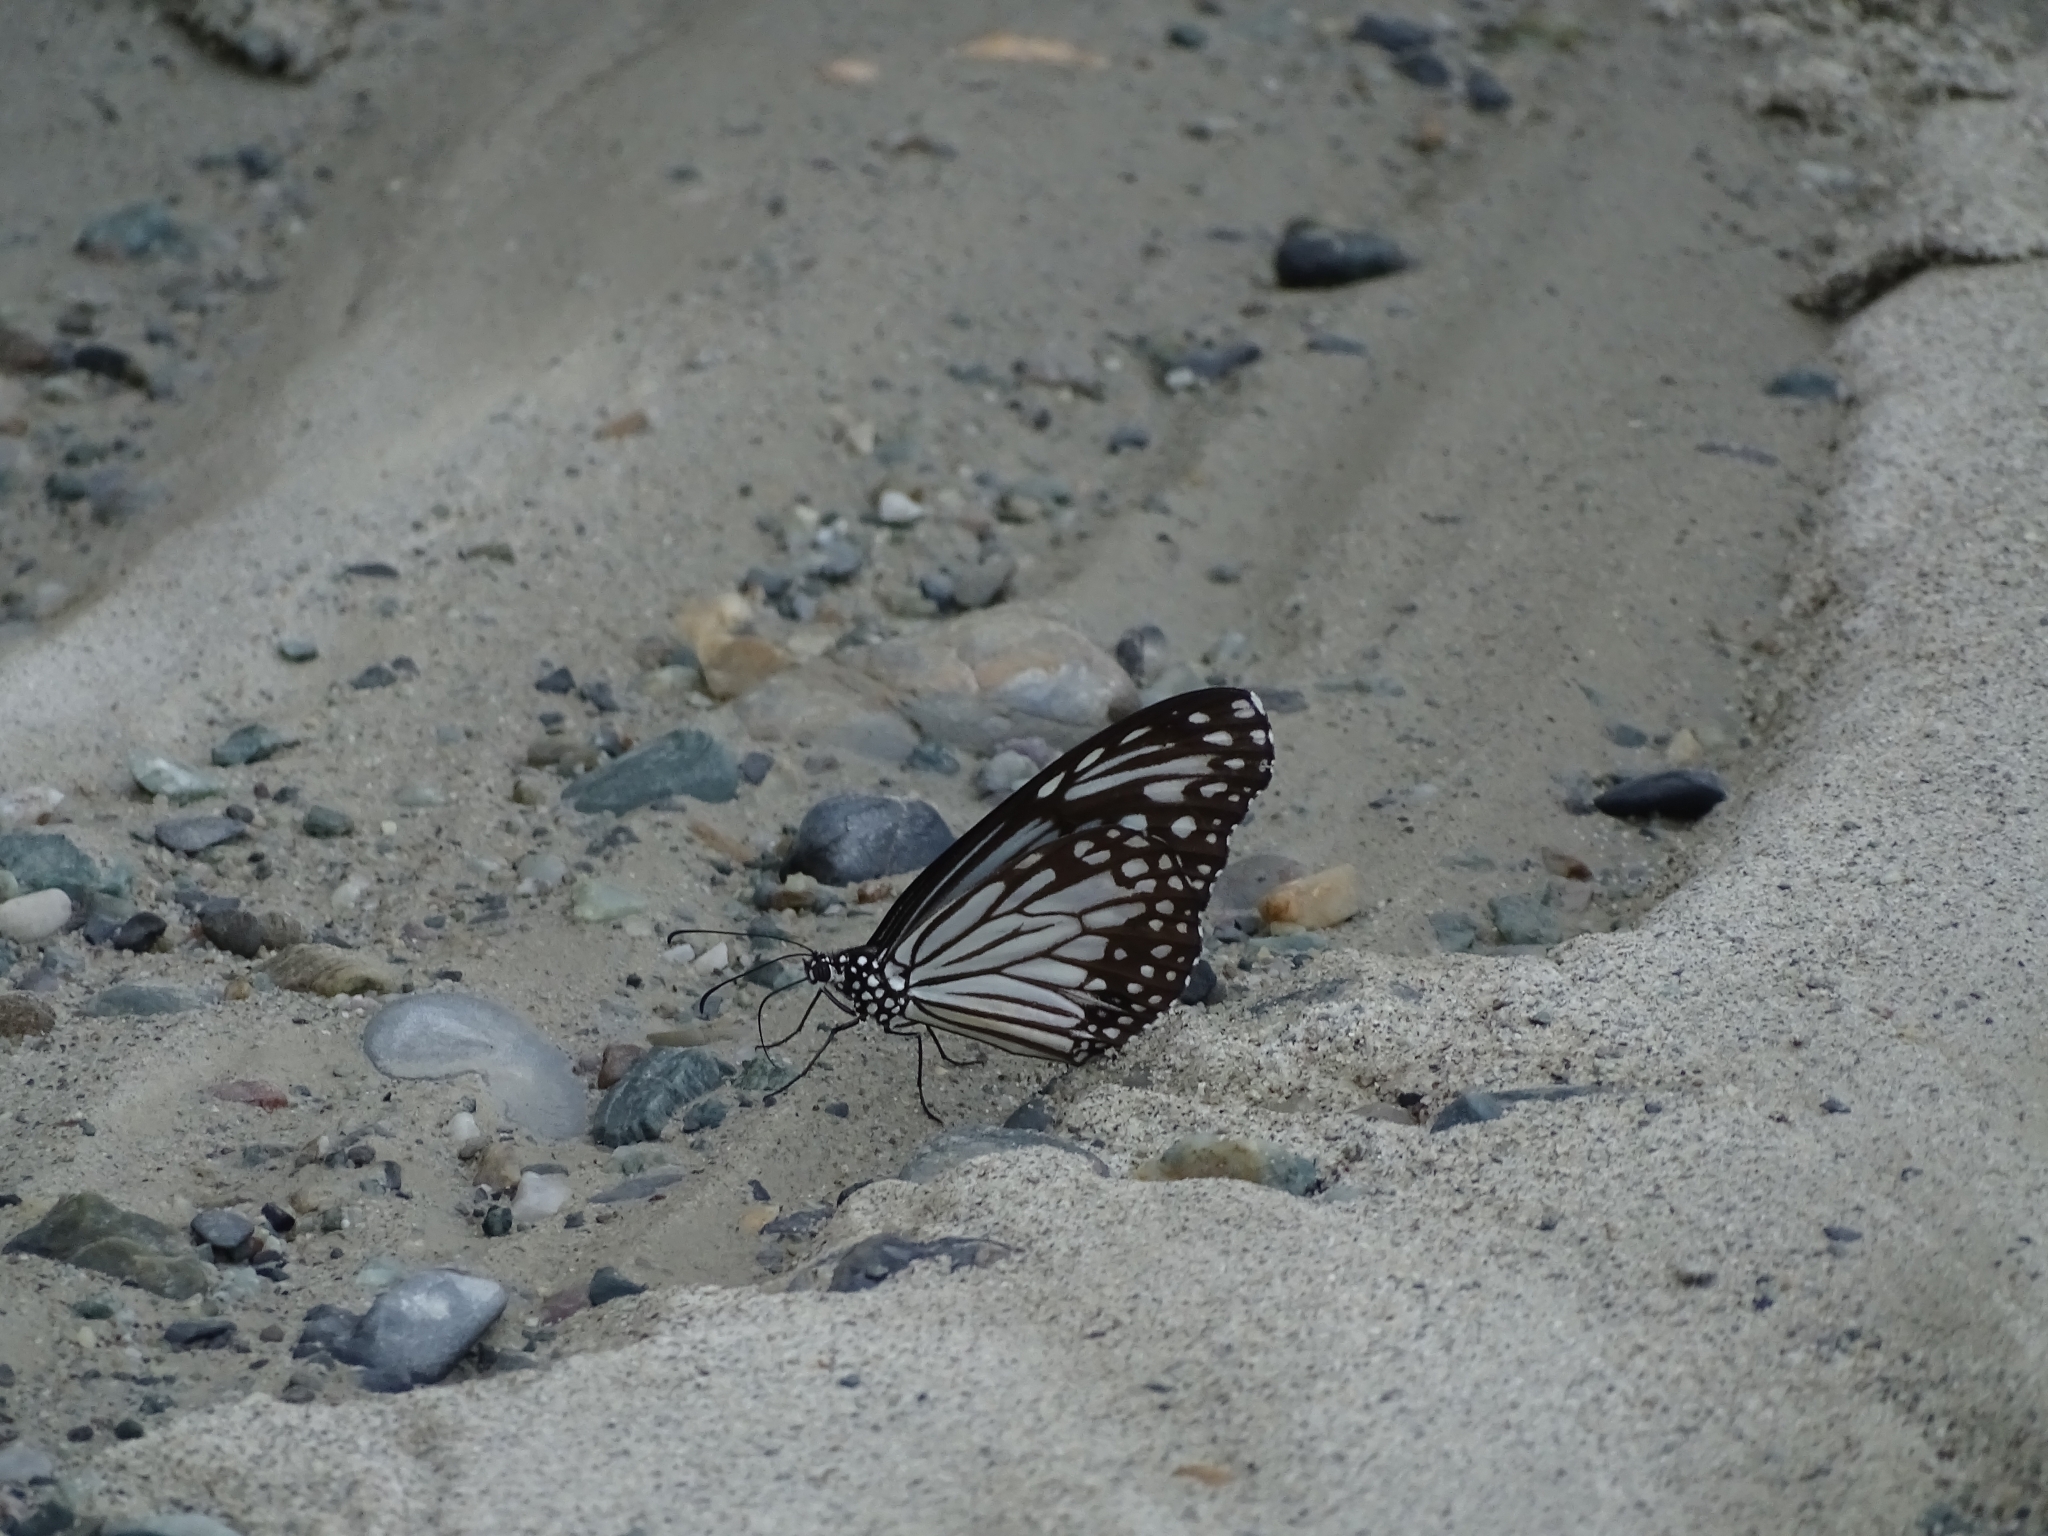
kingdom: Animalia
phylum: Arthropoda
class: Insecta
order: Lepidoptera
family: Nymphalidae
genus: Parantica
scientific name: Parantica aglea
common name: Glassy tiger
